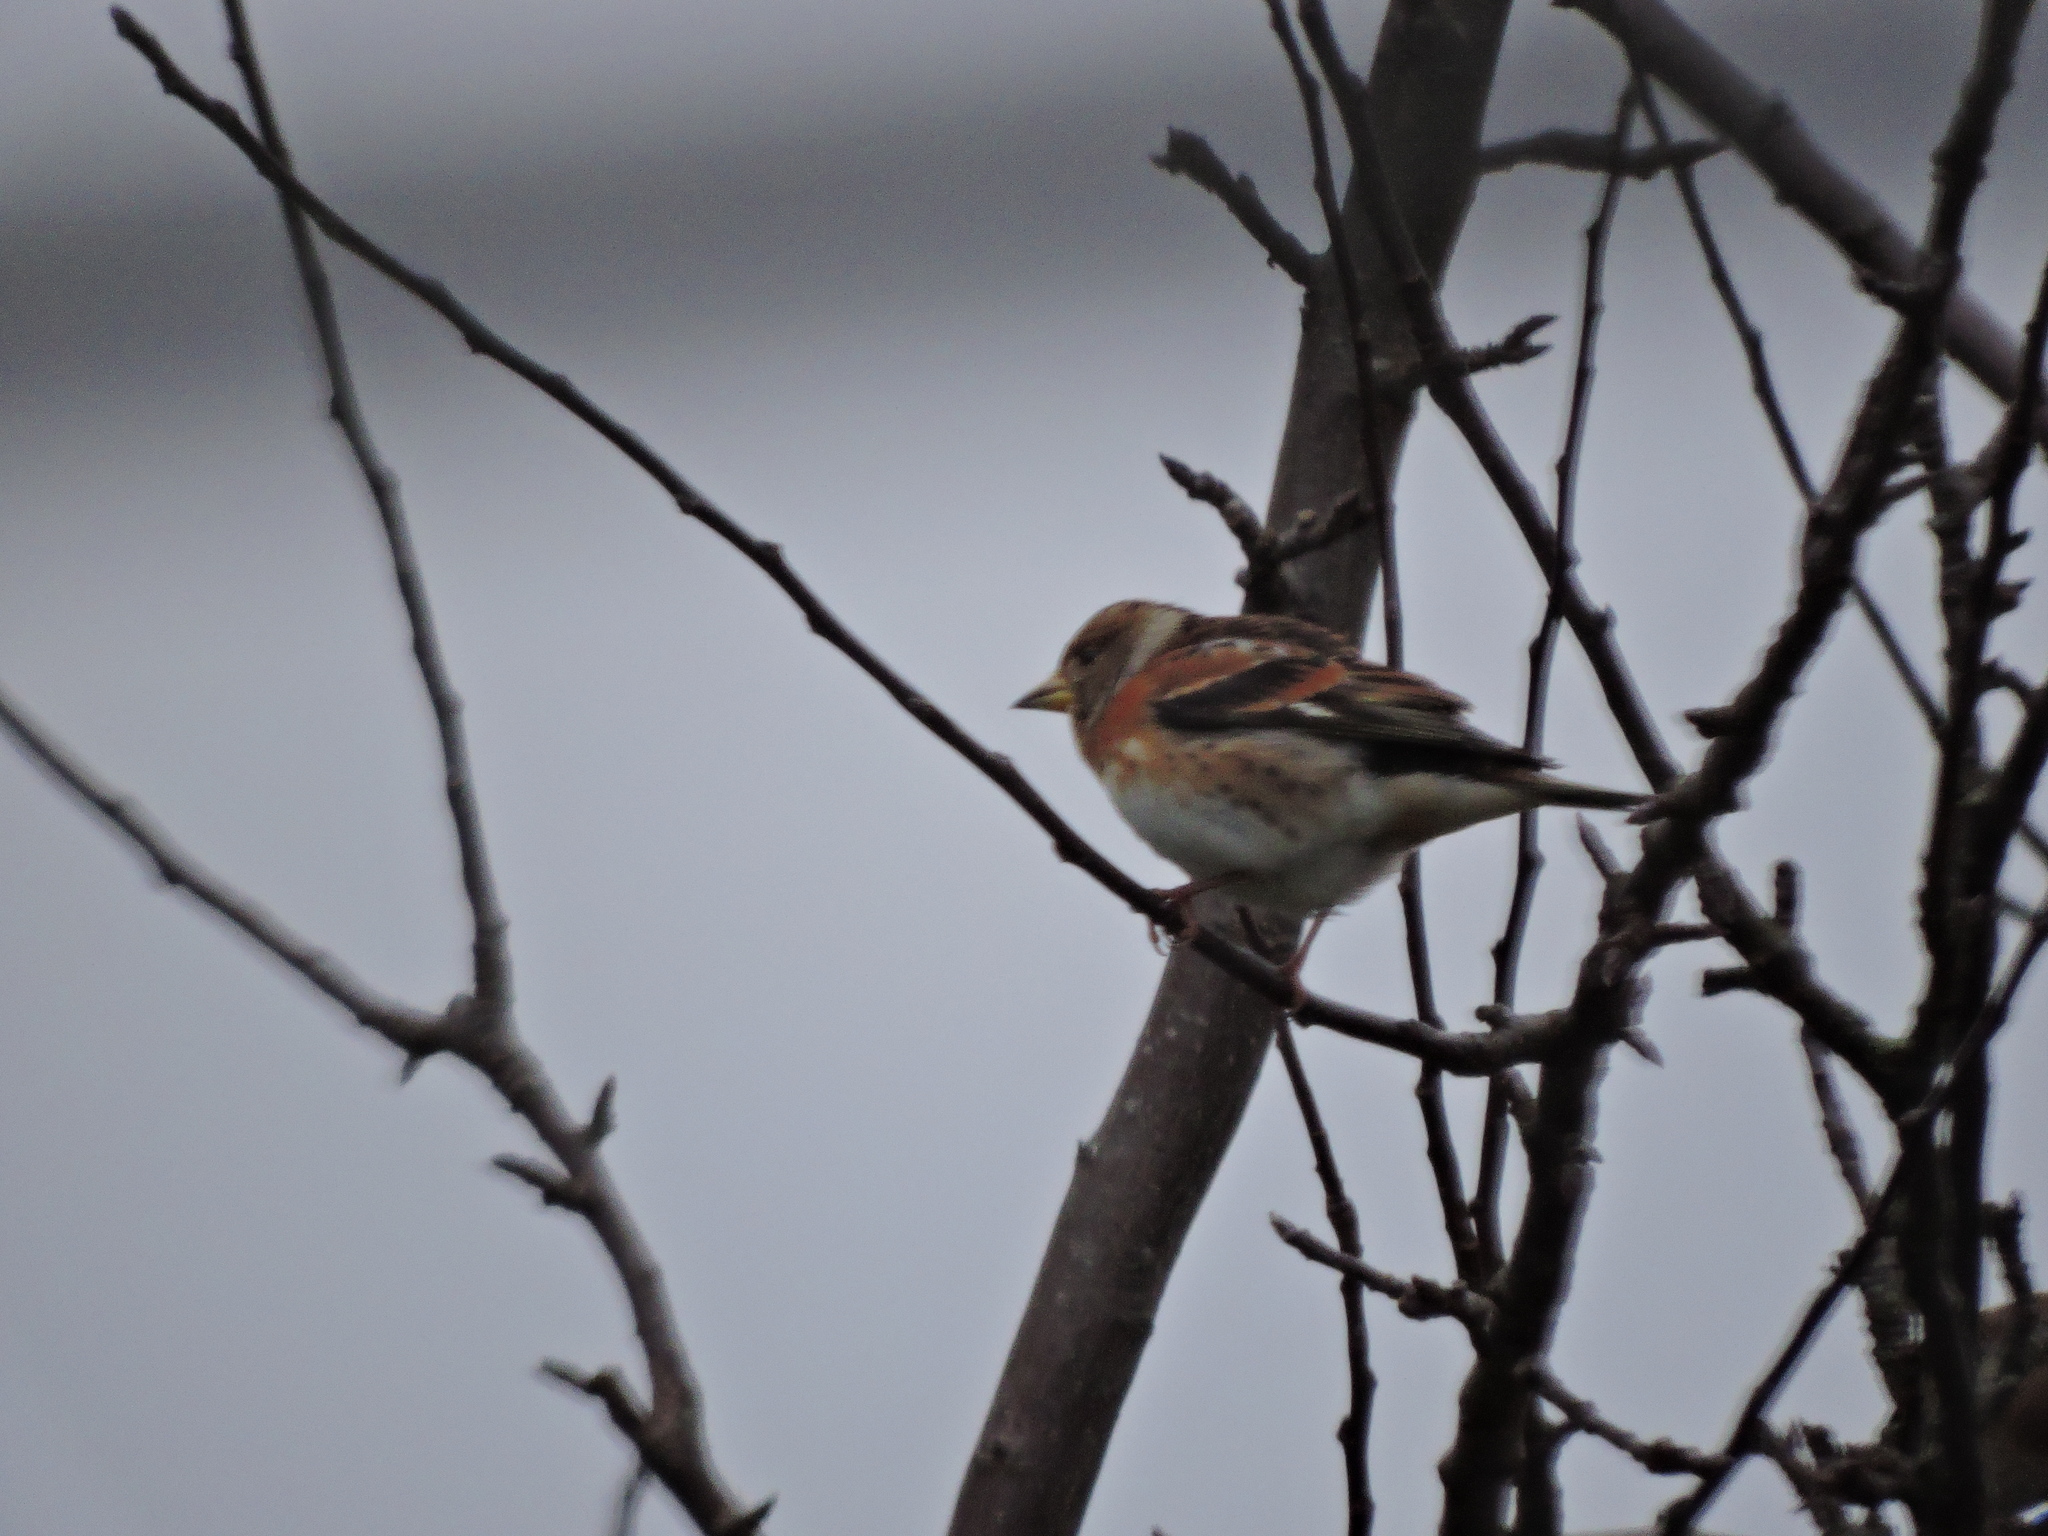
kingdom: Animalia
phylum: Chordata
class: Aves
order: Passeriformes
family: Fringillidae
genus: Fringilla
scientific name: Fringilla montifringilla
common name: Brambling
